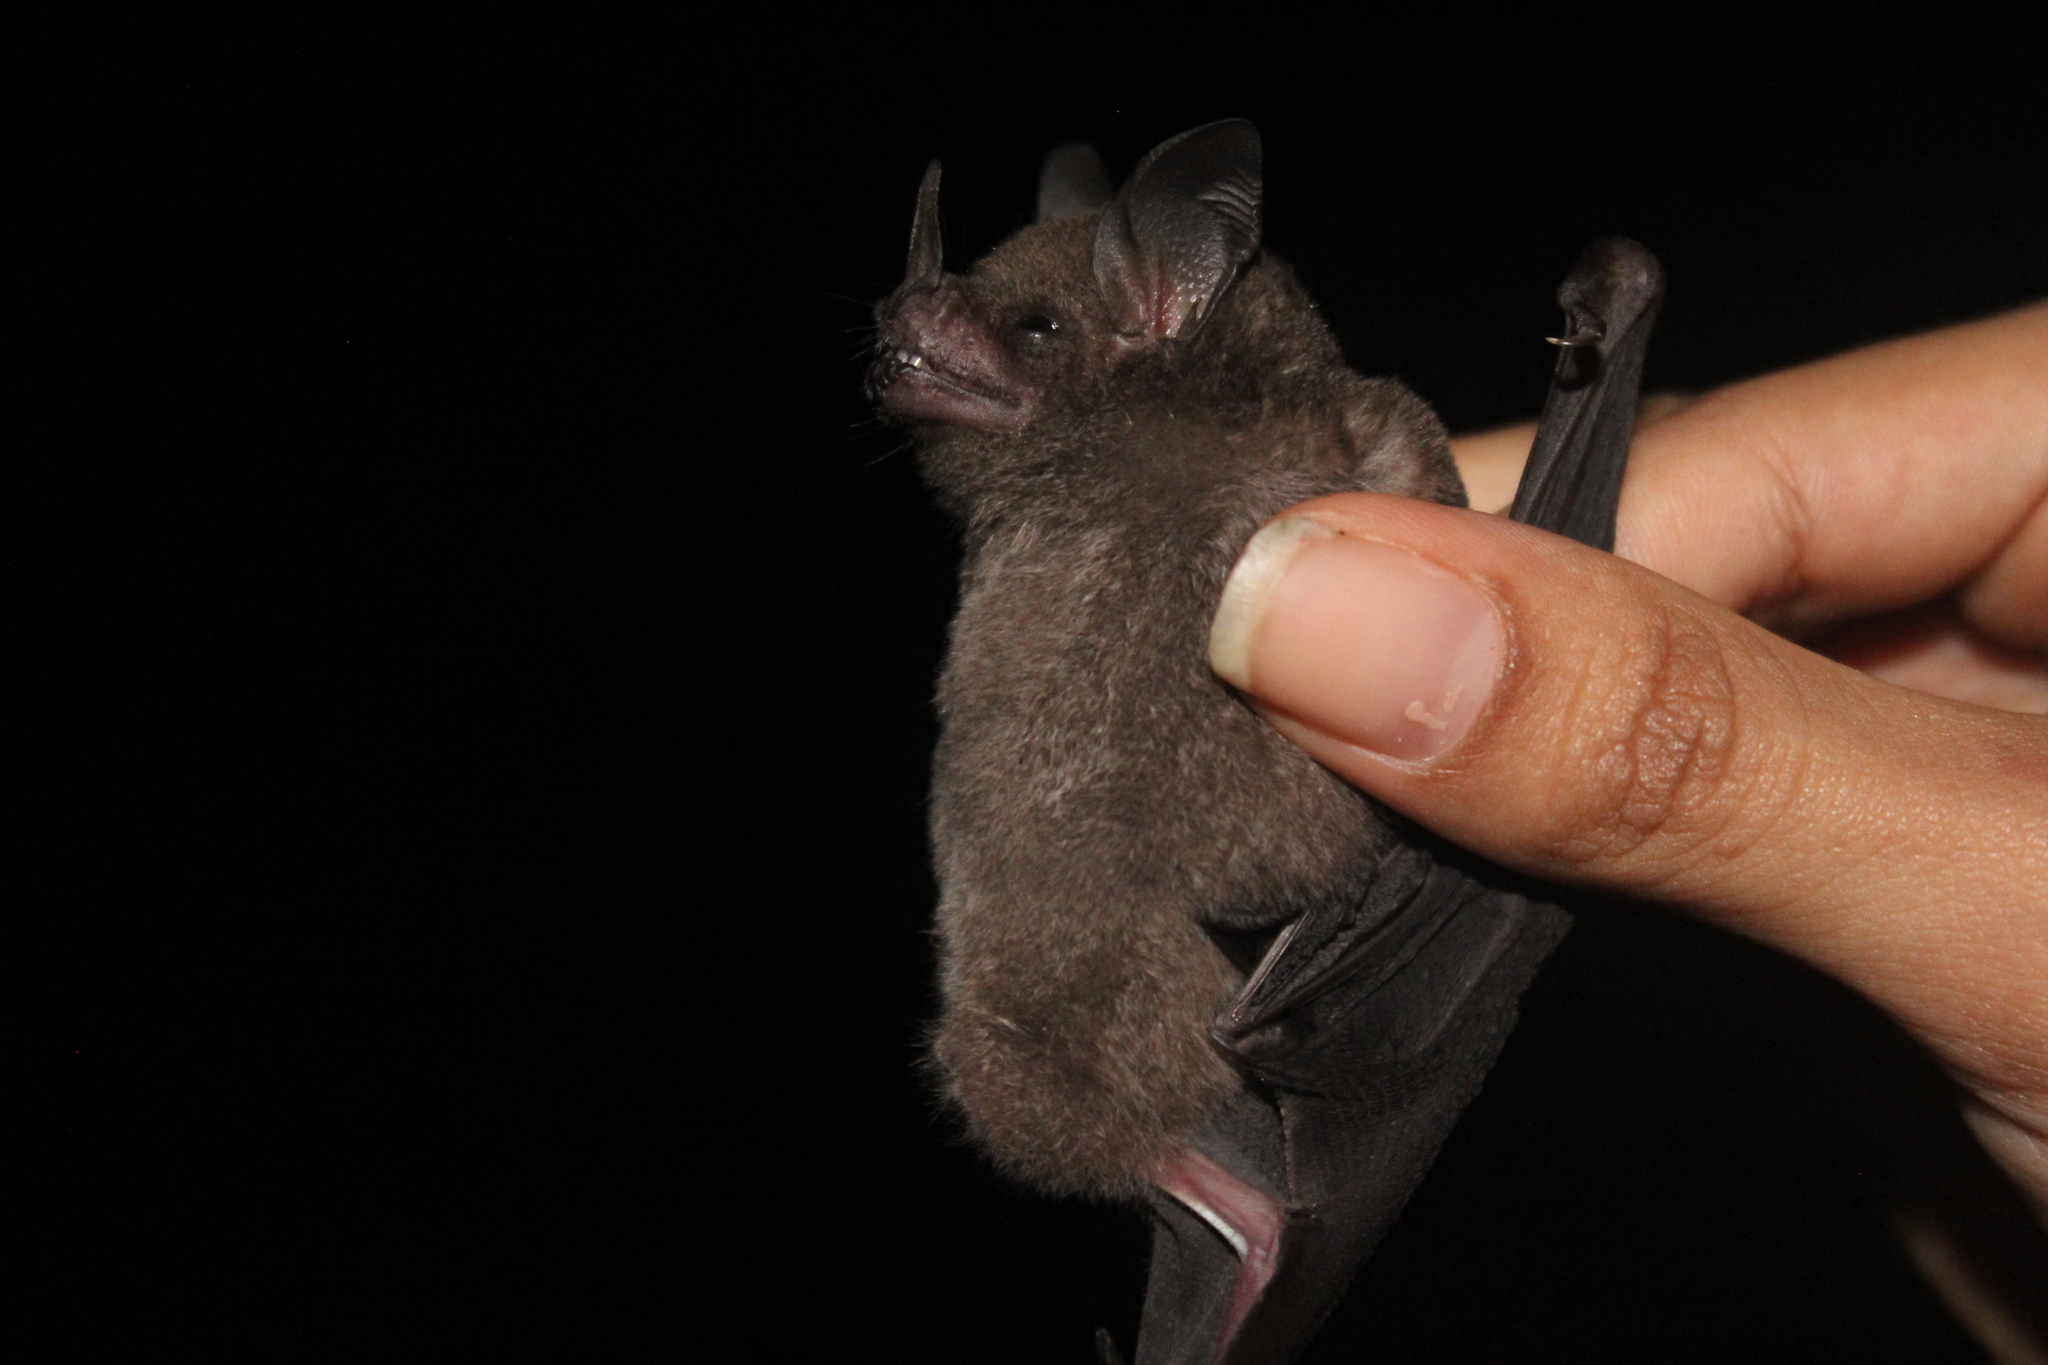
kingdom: Animalia
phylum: Chordata
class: Mammalia
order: Chiroptera
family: Phyllostomidae
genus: Carollia
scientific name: Carollia perspicillata
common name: Seba's short-tailed bat
